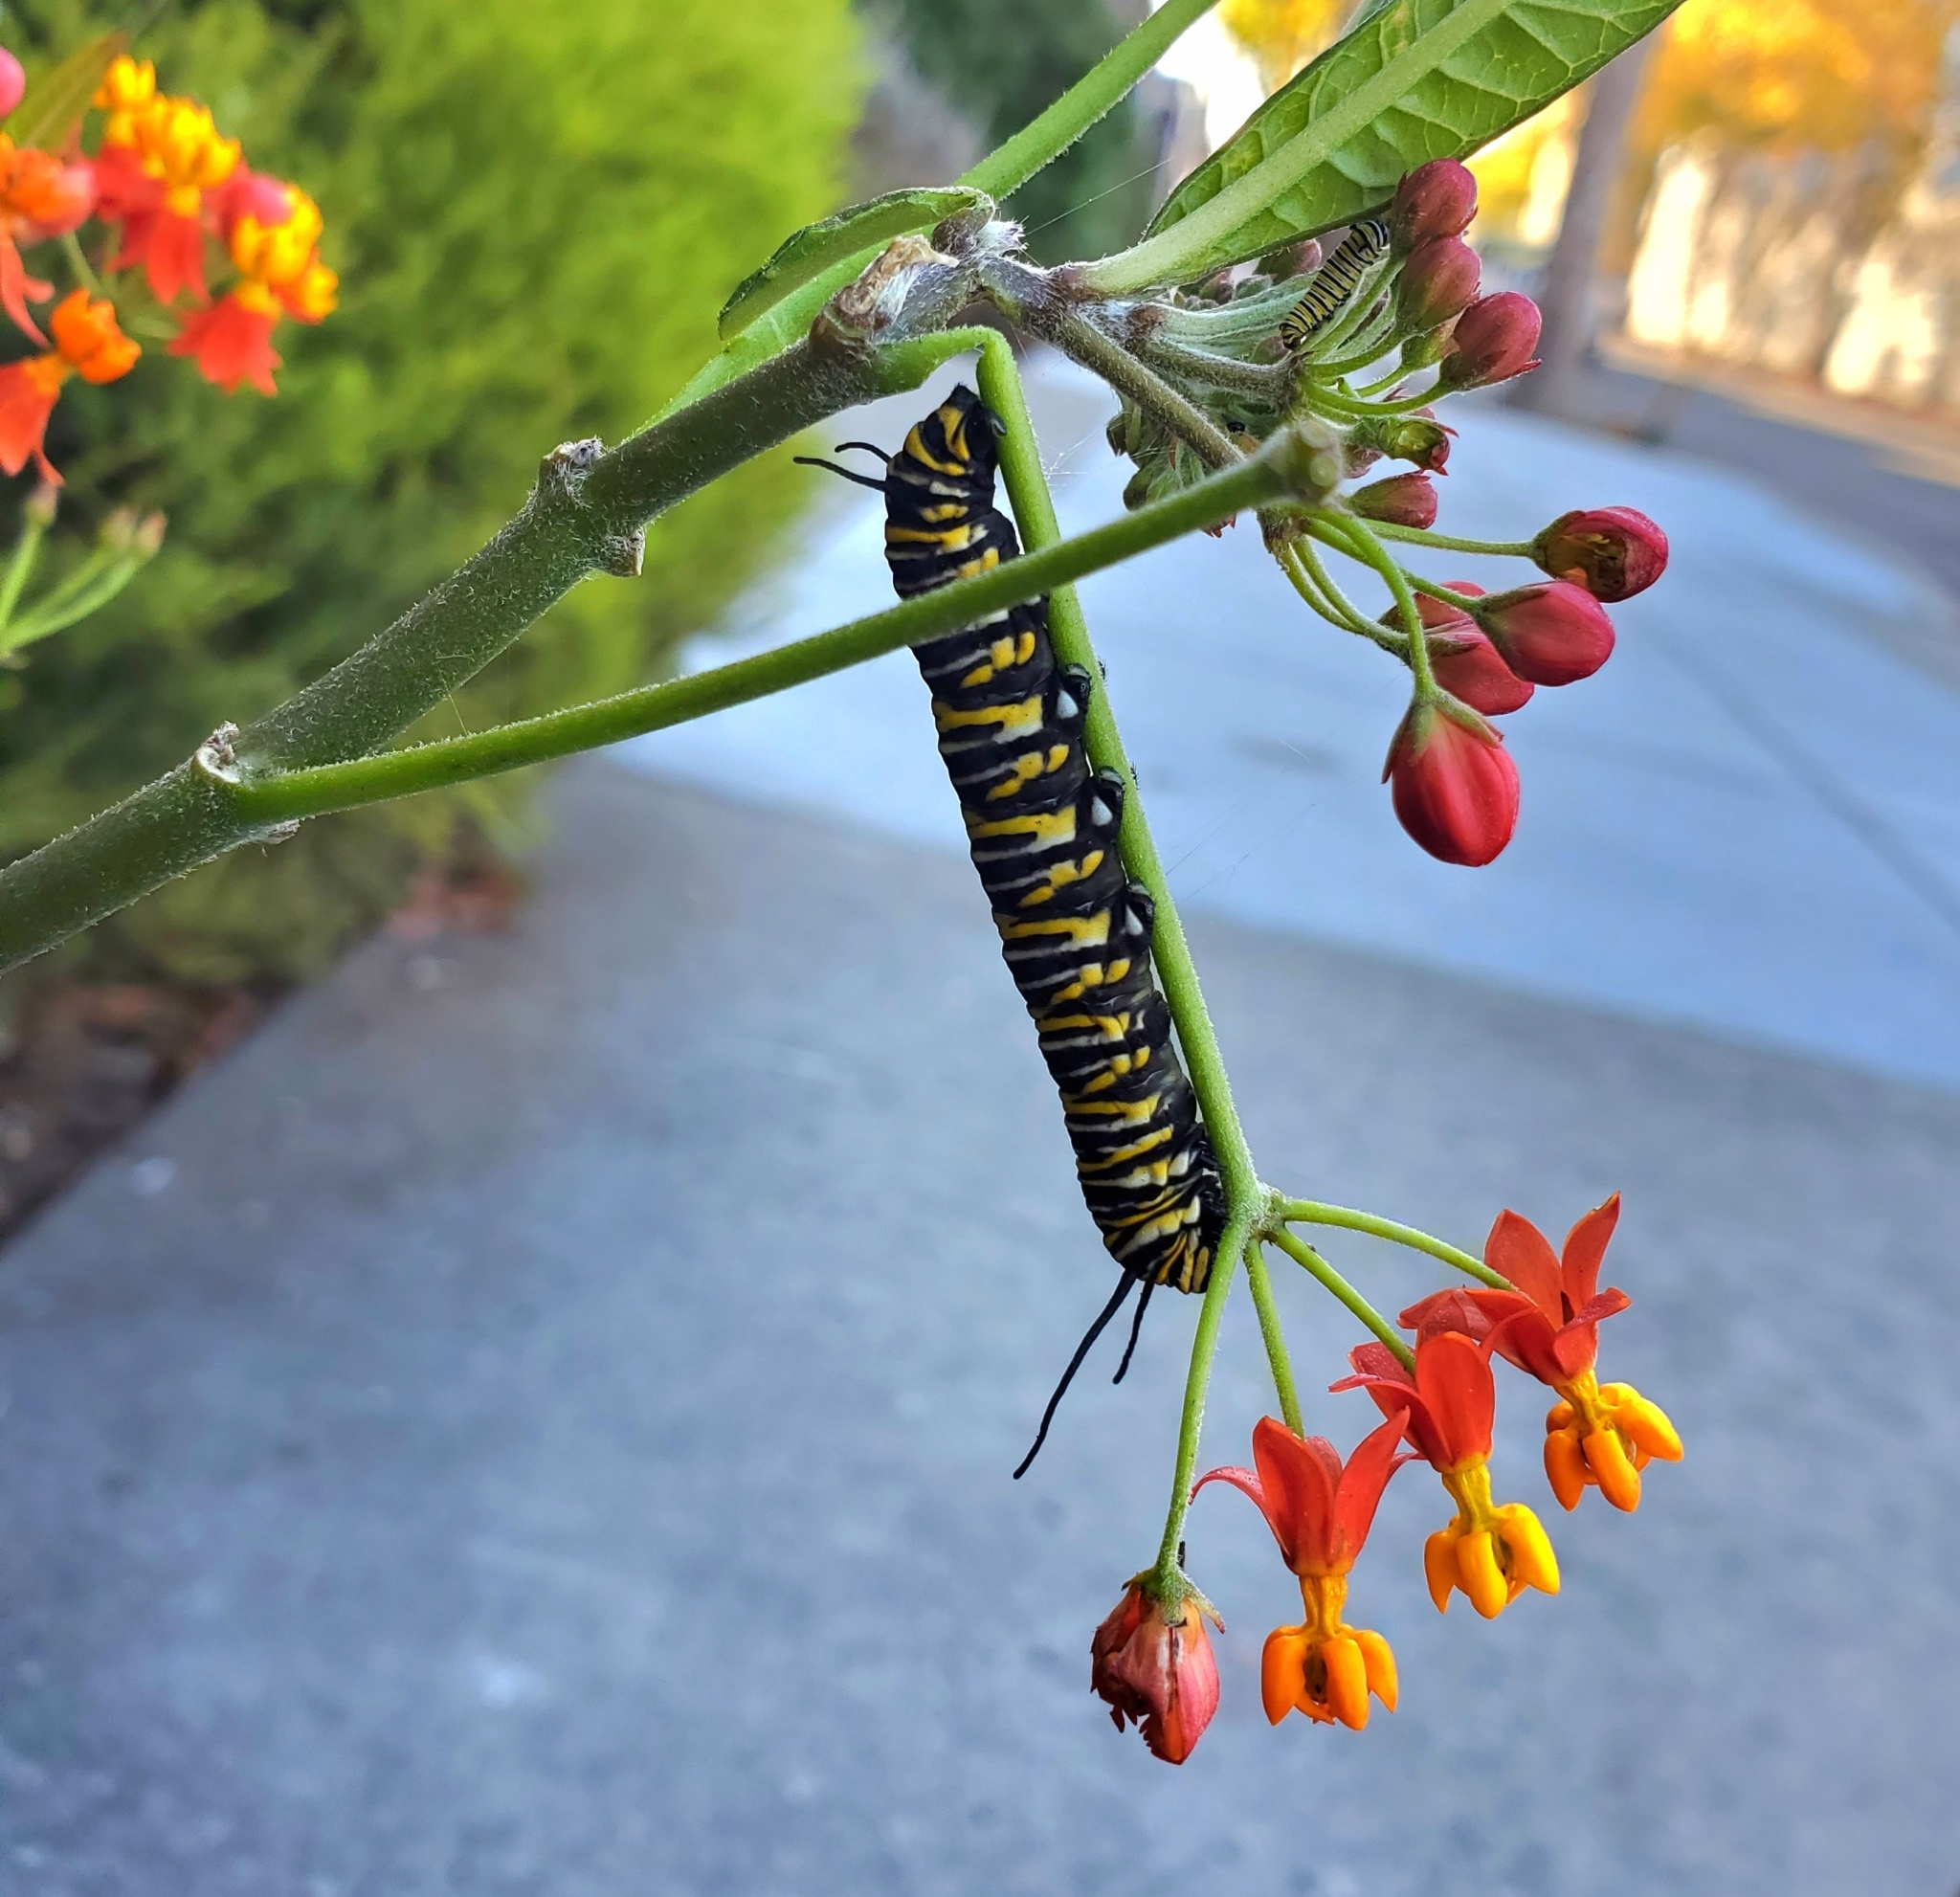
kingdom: Animalia
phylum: Arthropoda
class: Insecta
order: Lepidoptera
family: Nymphalidae
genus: Danaus
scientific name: Danaus plexippus
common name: Monarch
